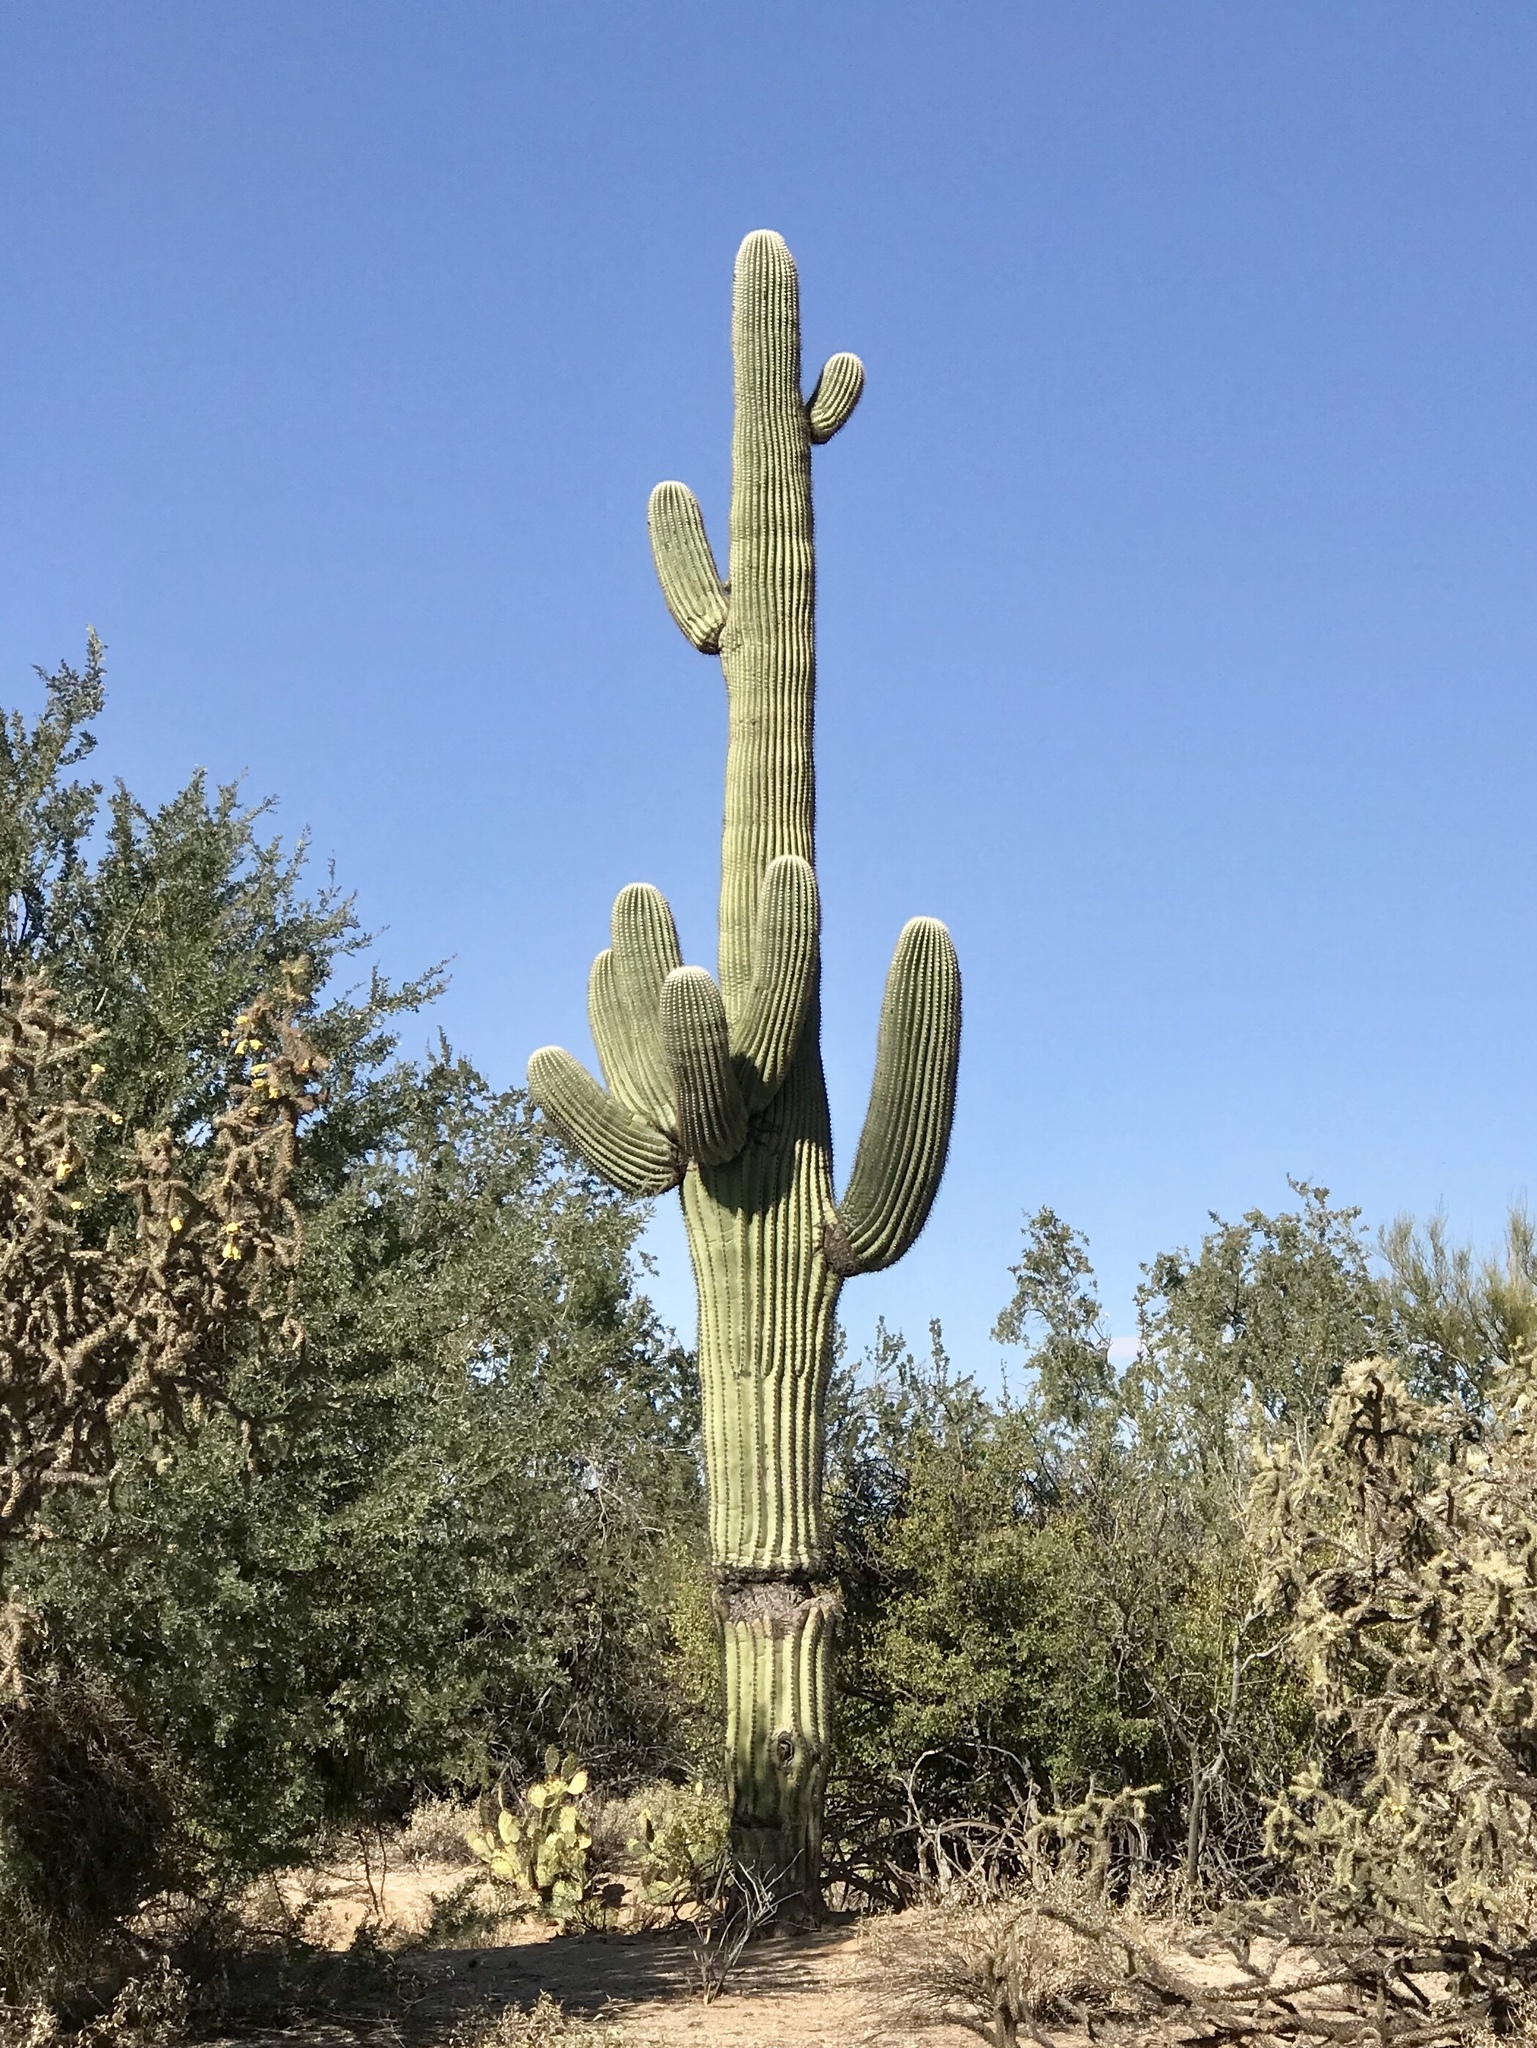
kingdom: Plantae
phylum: Tracheophyta
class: Magnoliopsida
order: Caryophyllales
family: Cactaceae
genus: Carnegiea
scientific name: Carnegiea gigantea
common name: Saguaro
